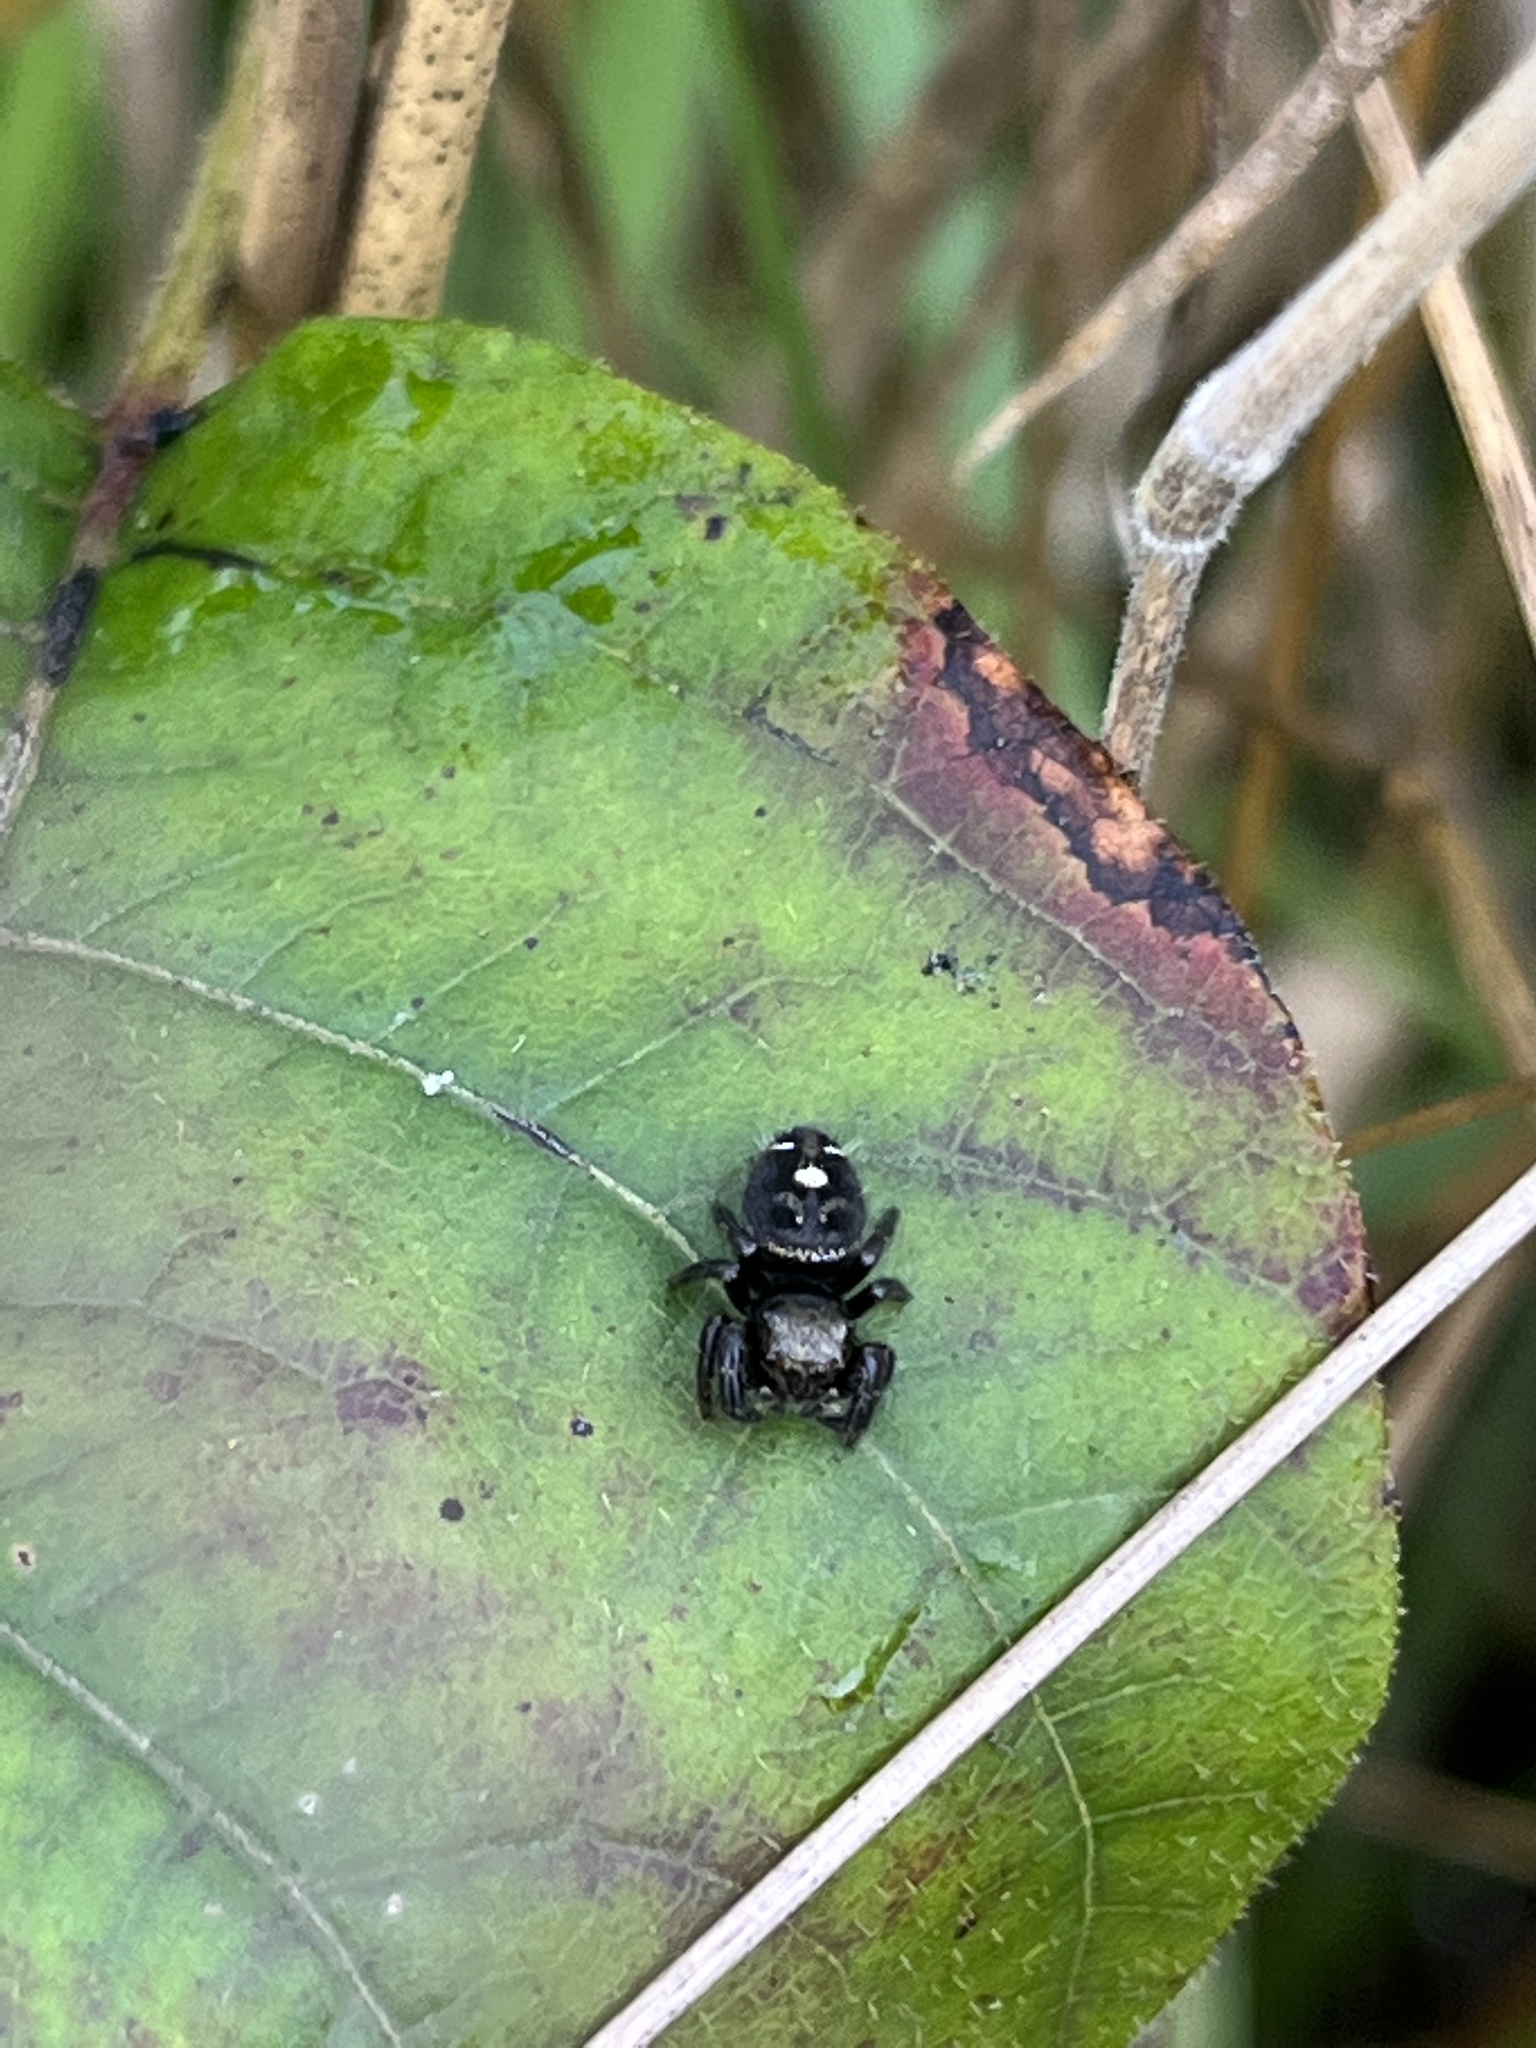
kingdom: Animalia
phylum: Arthropoda
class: Arachnida
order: Araneae
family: Salticidae
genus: Phidippus
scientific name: Phidippus audax
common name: Bold jumper
